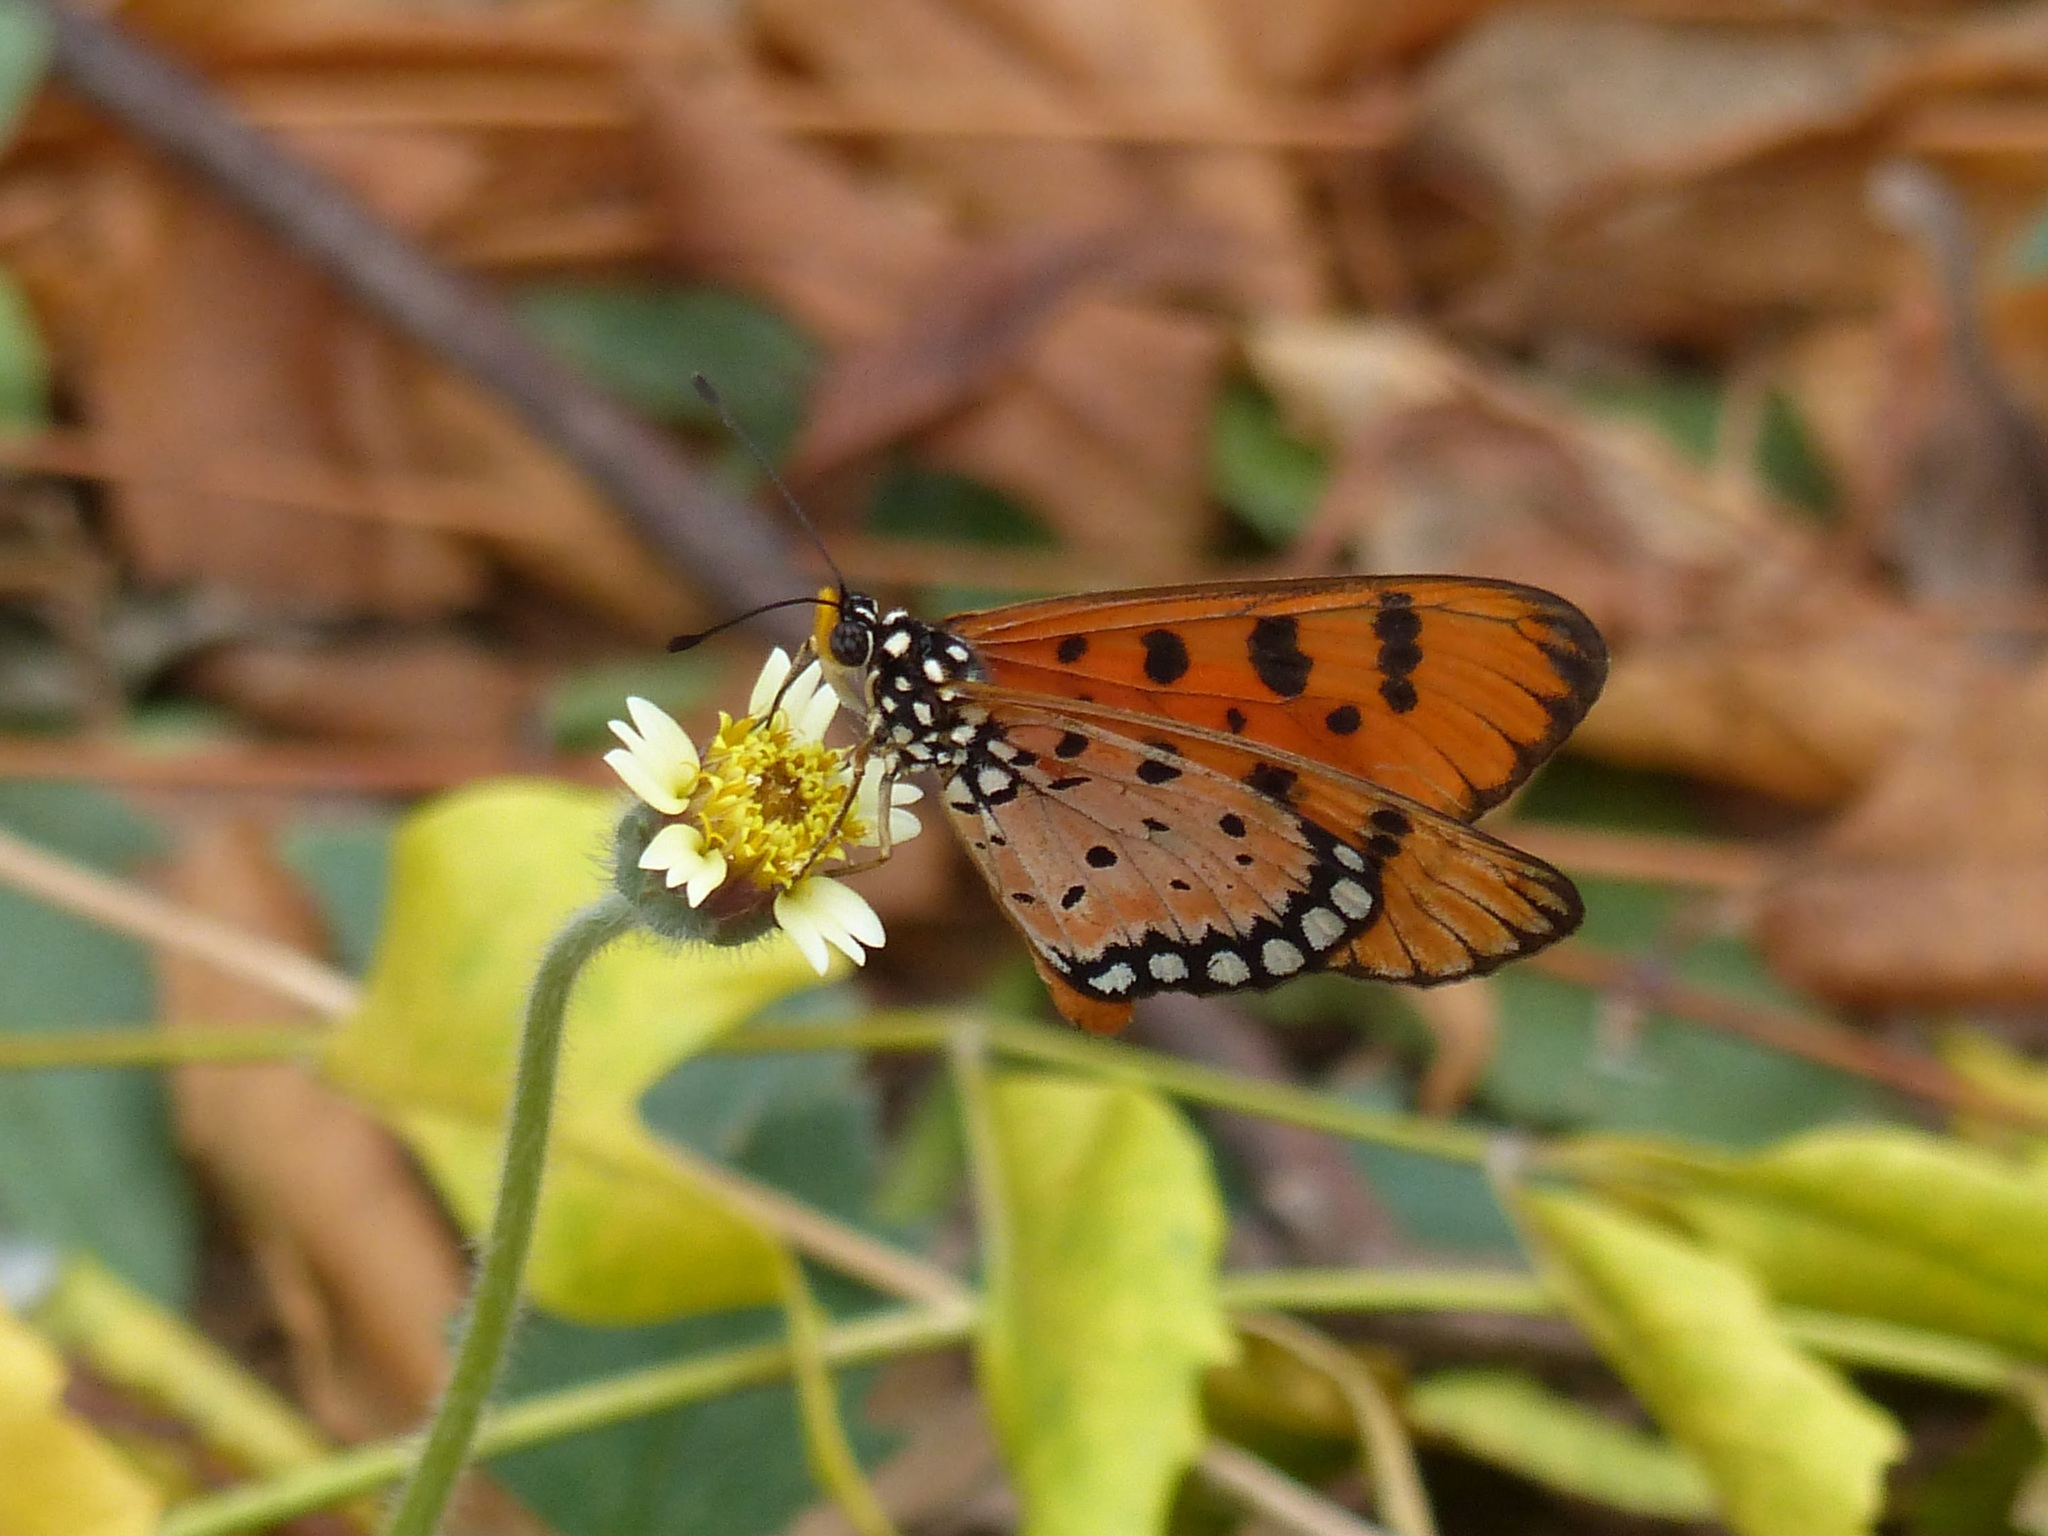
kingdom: Animalia
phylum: Arthropoda
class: Insecta
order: Lepidoptera
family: Nymphalidae
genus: Acraea
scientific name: Acraea terpsicore
